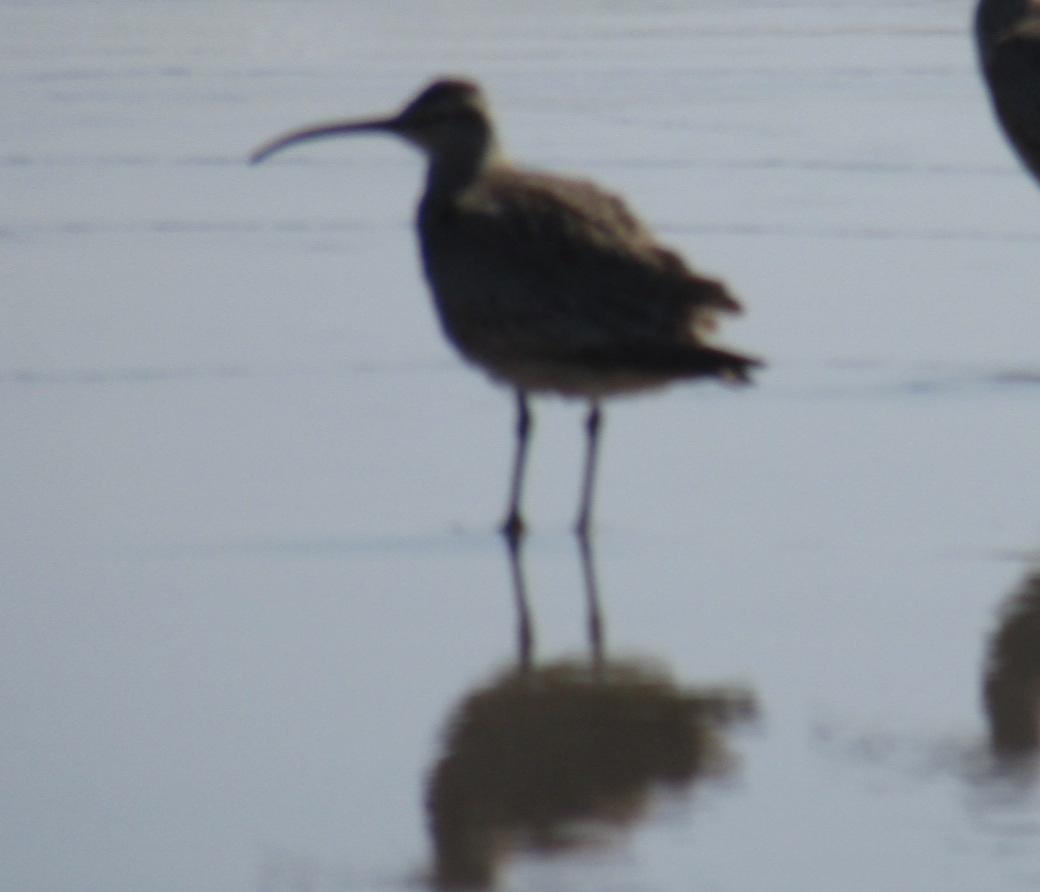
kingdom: Animalia
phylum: Chordata
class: Aves
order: Charadriiformes
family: Scolopacidae
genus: Numenius
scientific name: Numenius phaeopus
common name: Whimbrel
